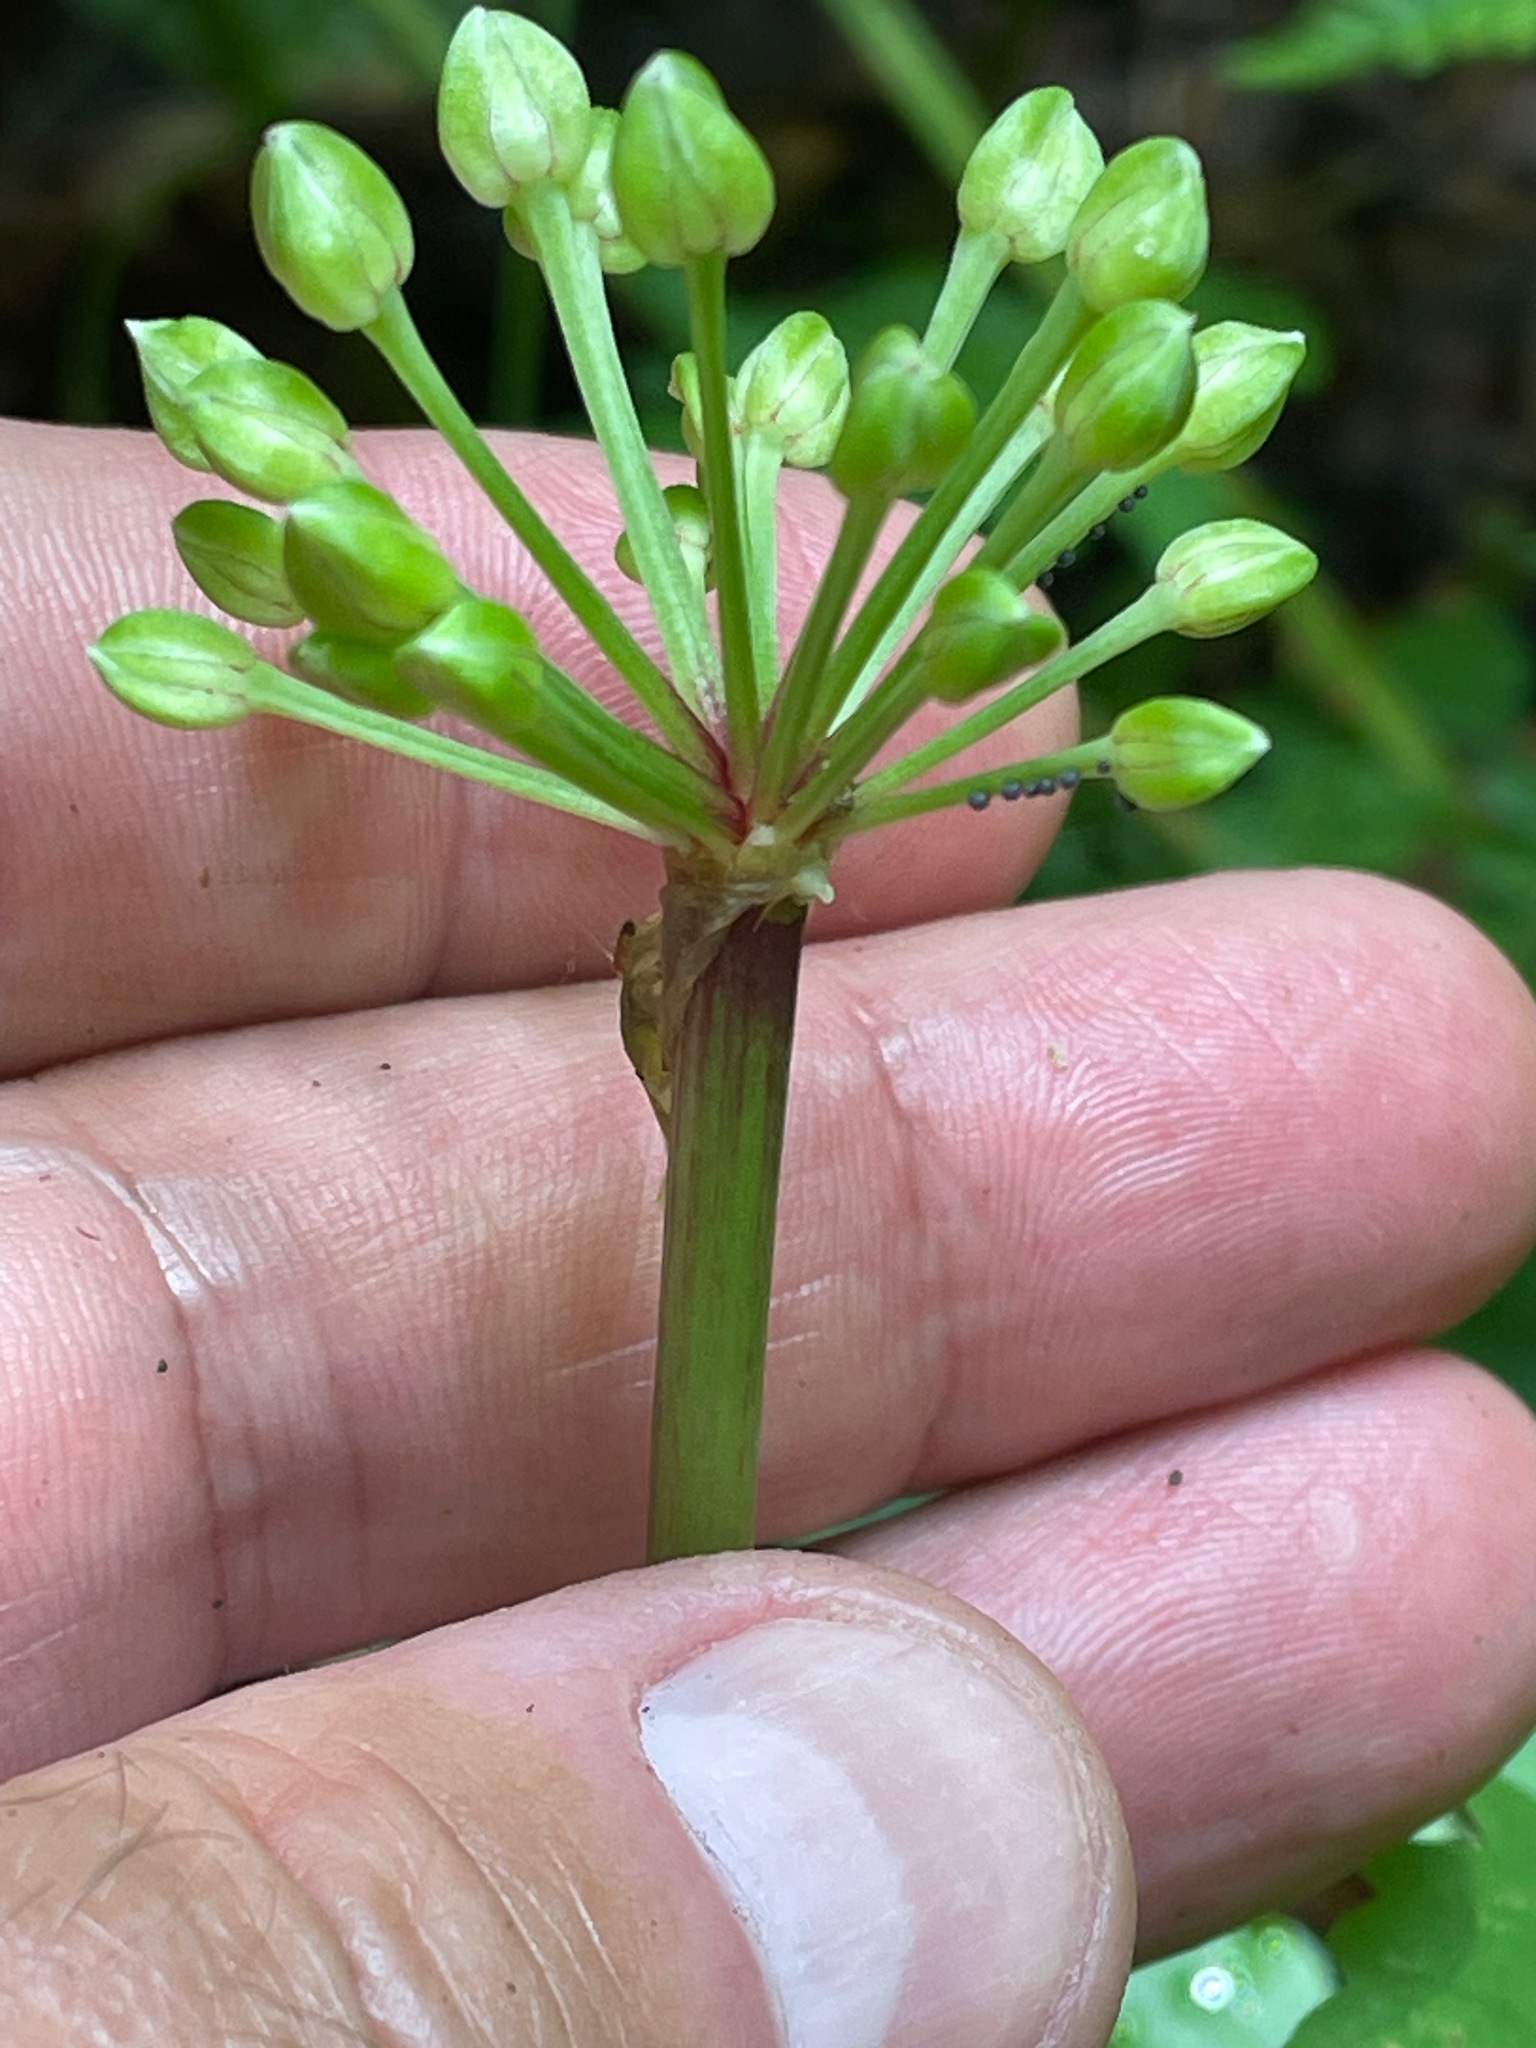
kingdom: Plantae
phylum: Tracheophyta
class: Liliopsida
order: Asparagales
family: Amaryllidaceae
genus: Allium
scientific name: Allium tricoccum
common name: Ramp
